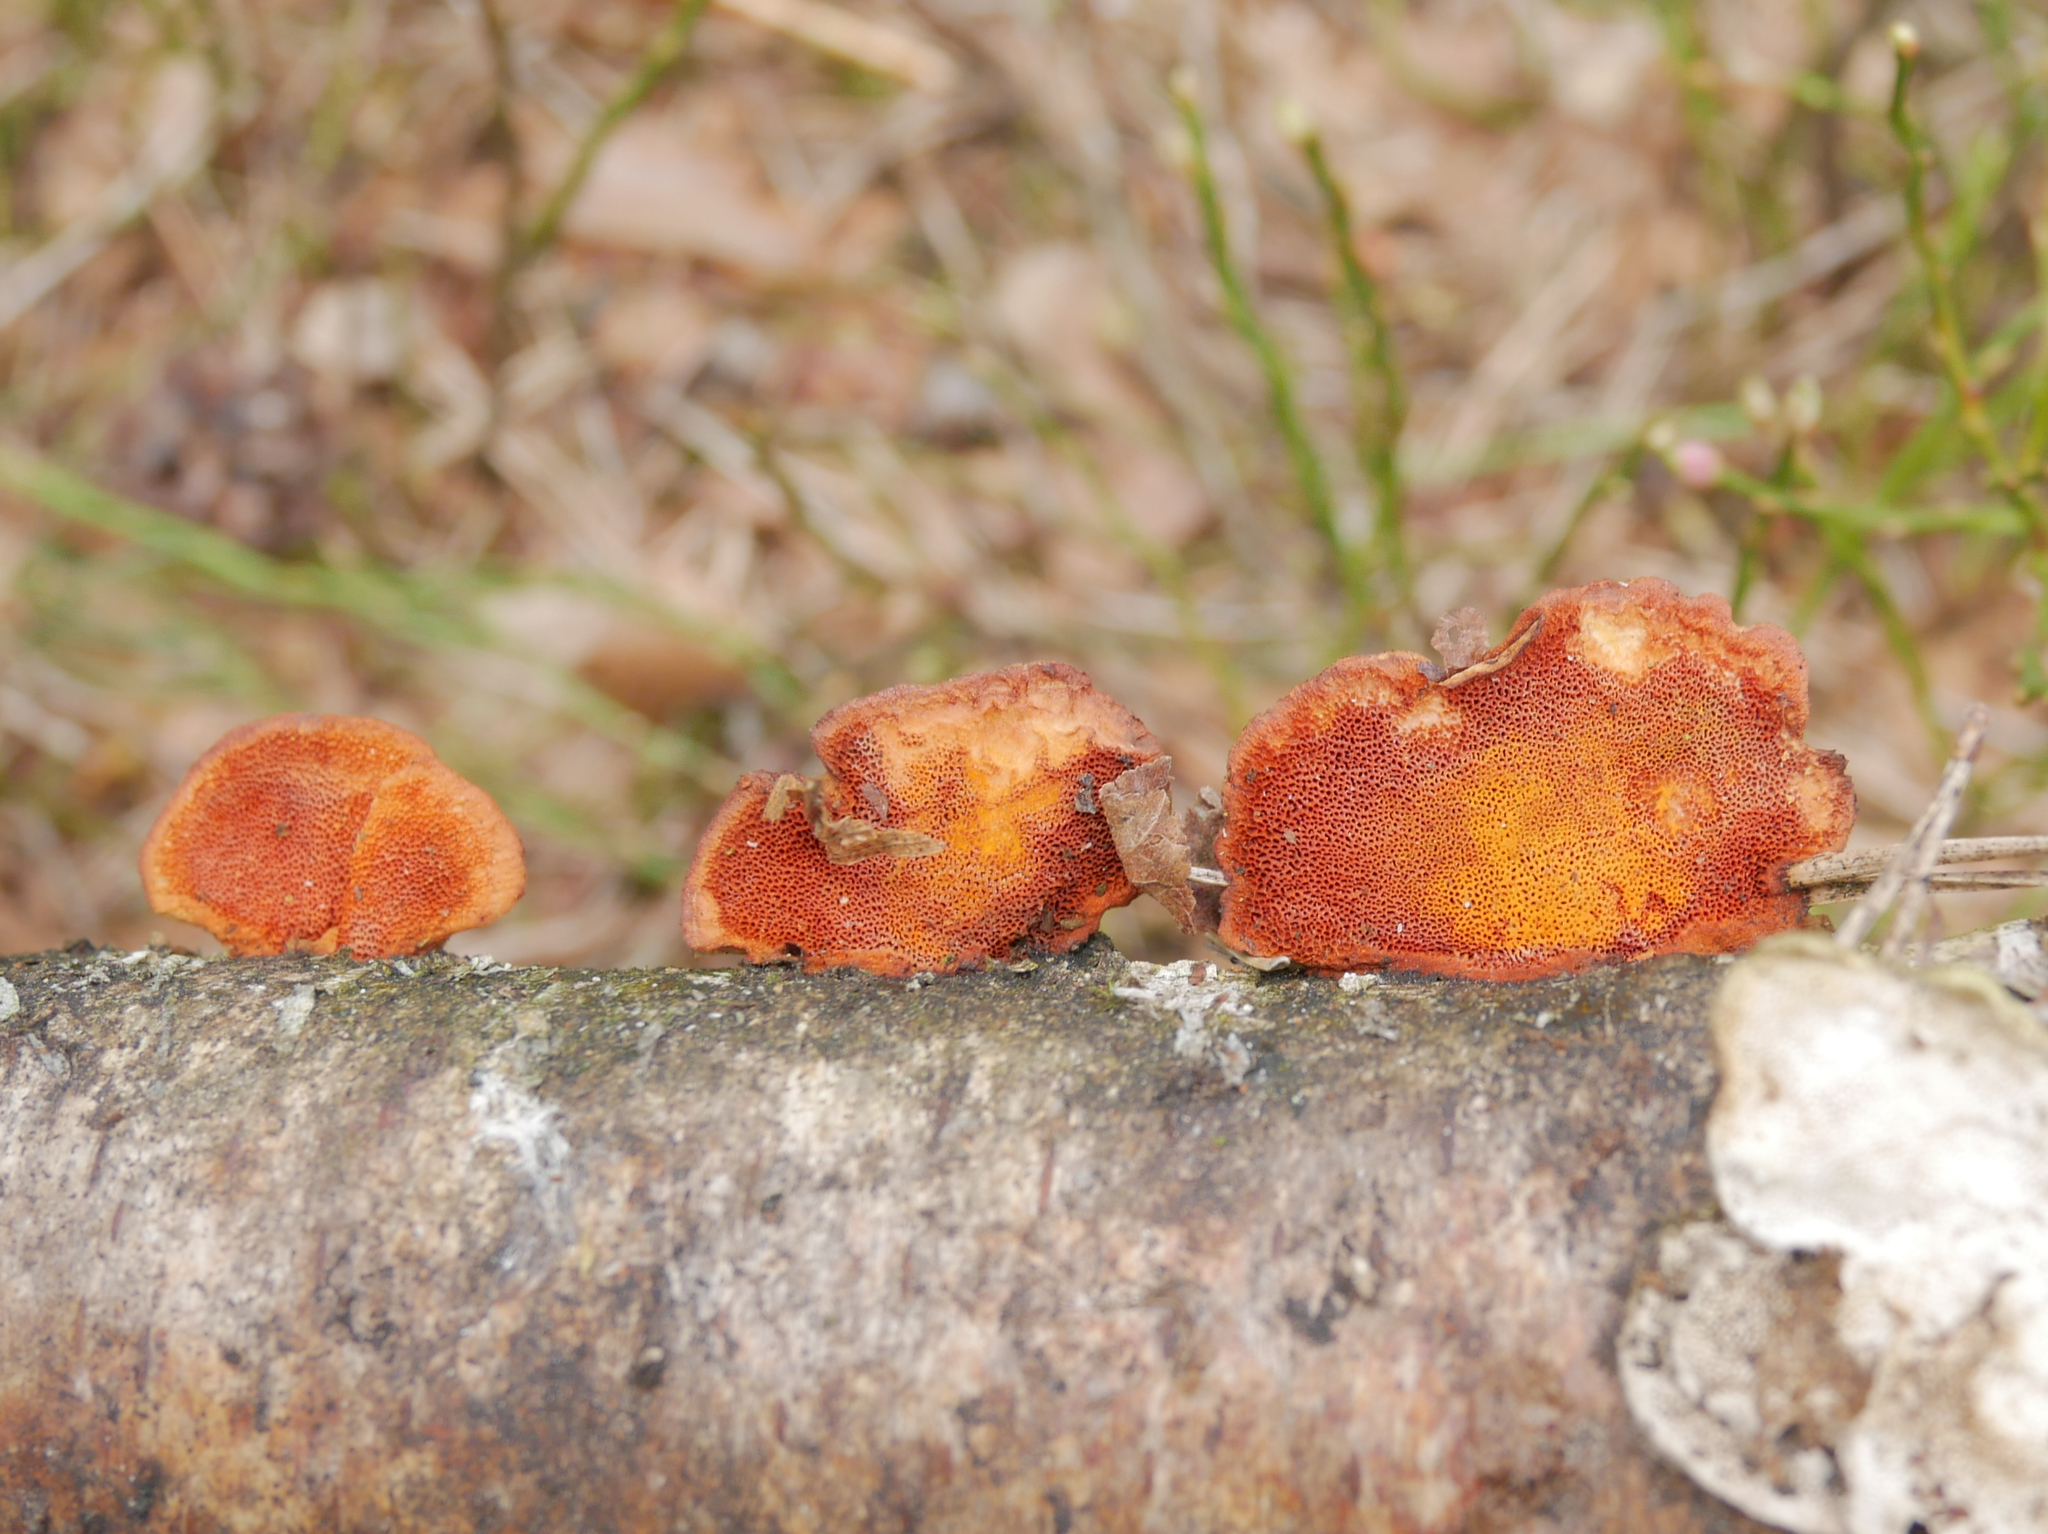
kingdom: Fungi
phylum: Basidiomycota
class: Agaricomycetes
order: Polyporales
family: Polyporaceae
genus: Trametes
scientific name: Trametes cinnabarina
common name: Northern cinnabar polypore
